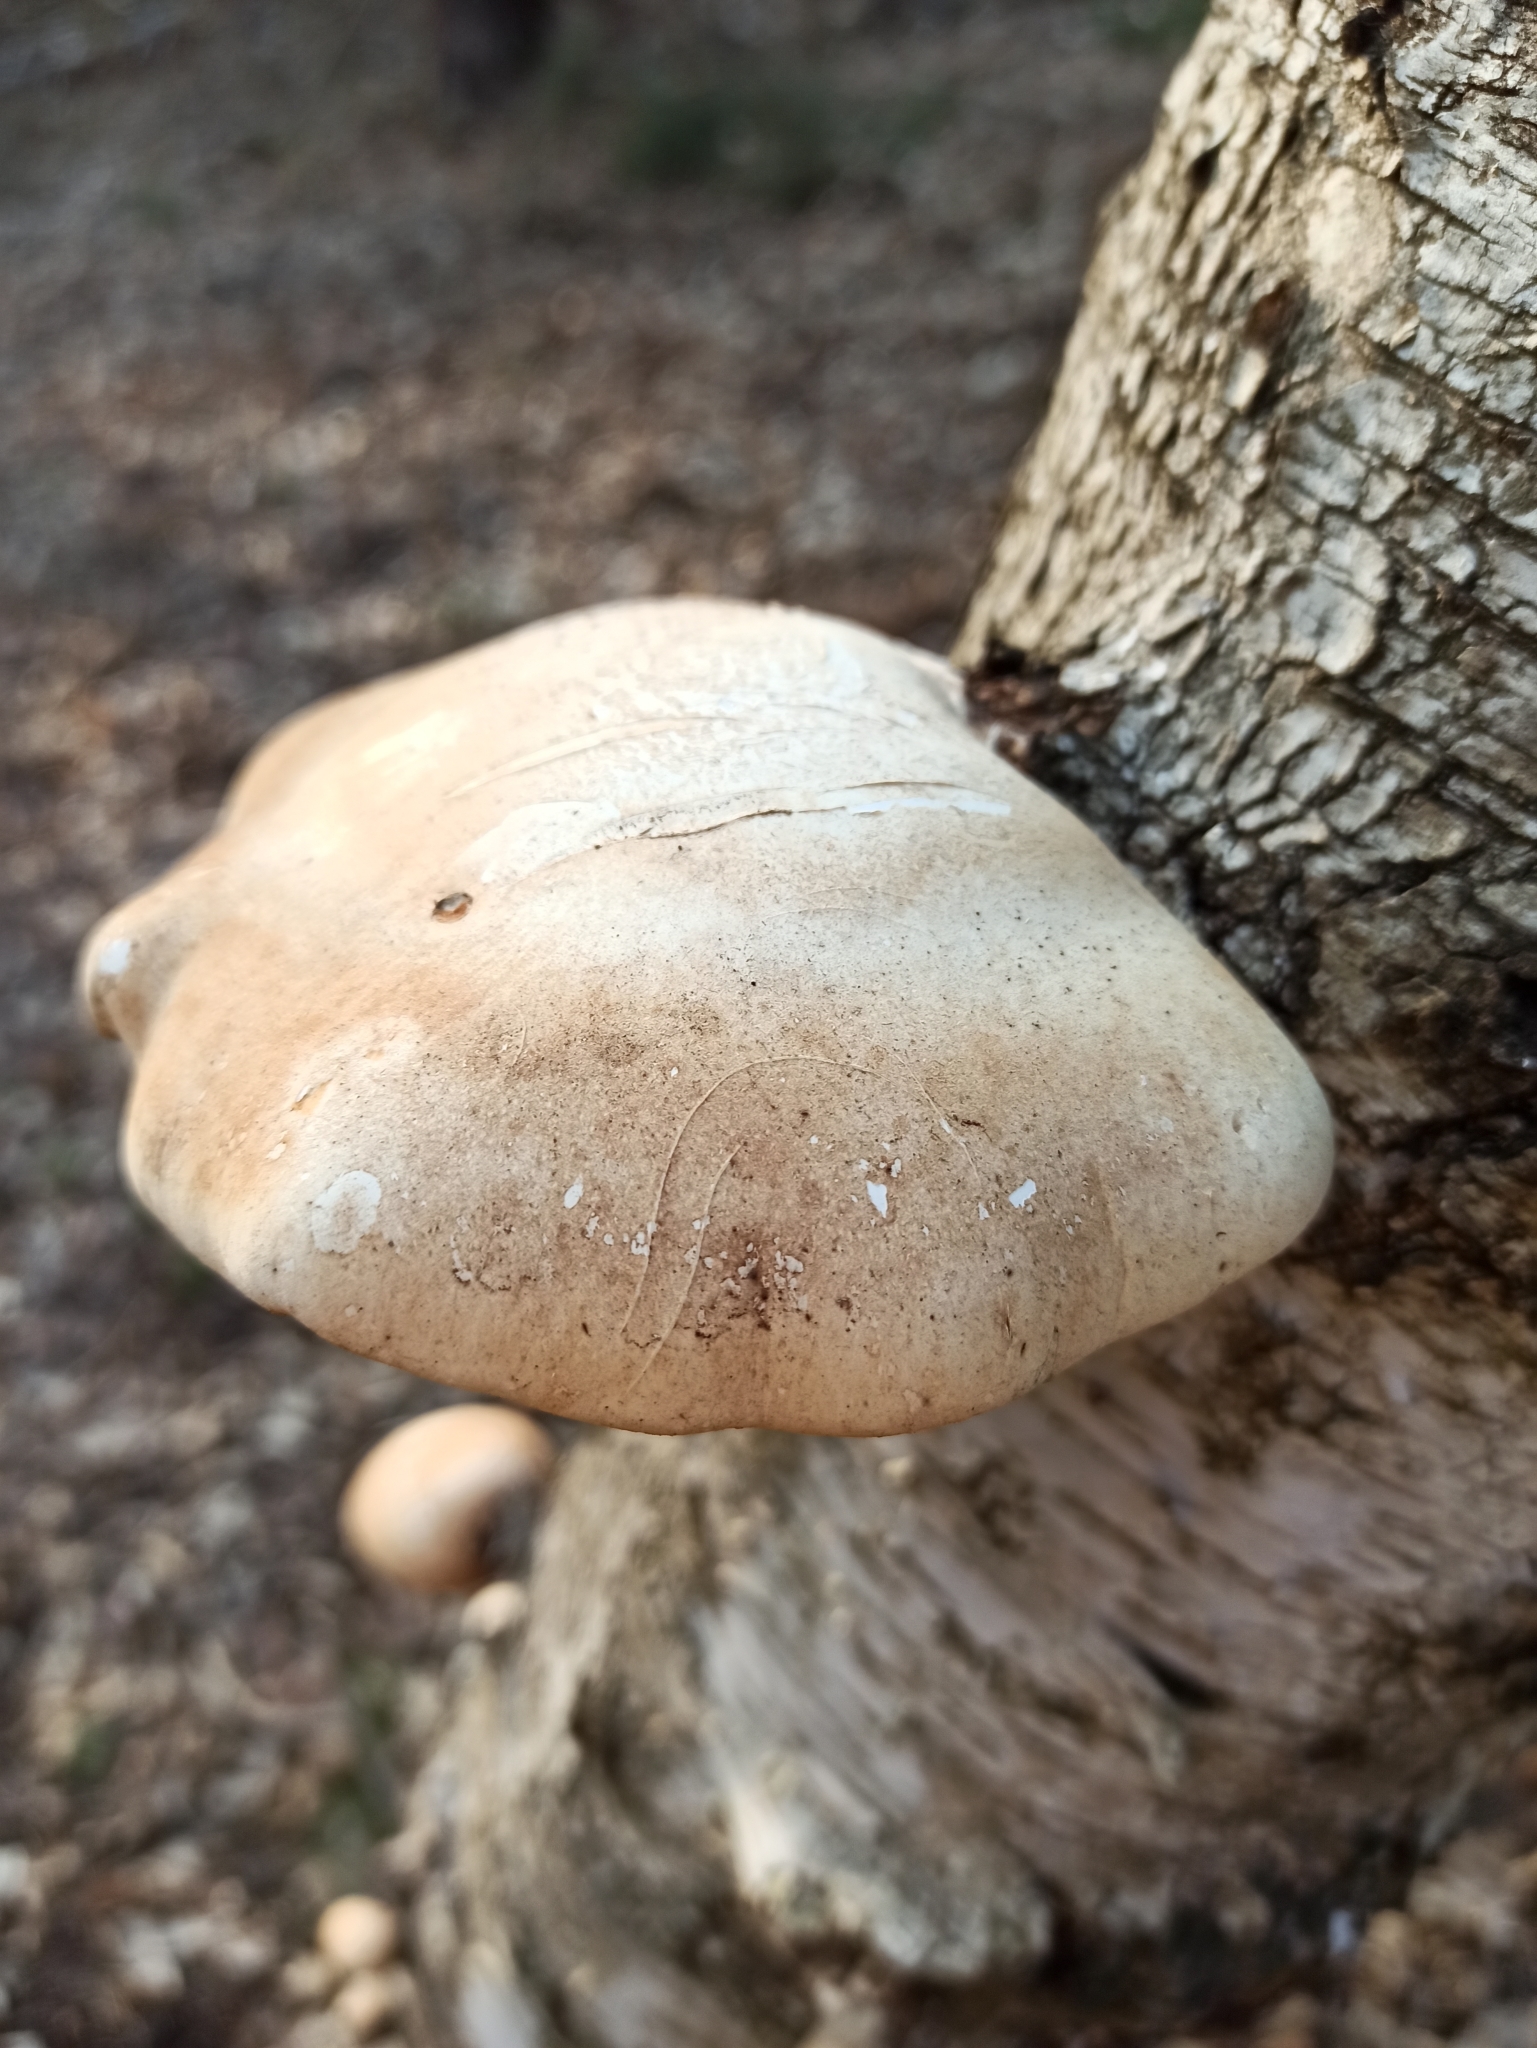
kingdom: Fungi
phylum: Basidiomycota
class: Agaricomycetes
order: Polyporales
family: Fomitopsidaceae
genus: Fomitopsis
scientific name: Fomitopsis betulina
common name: Birch polypore
